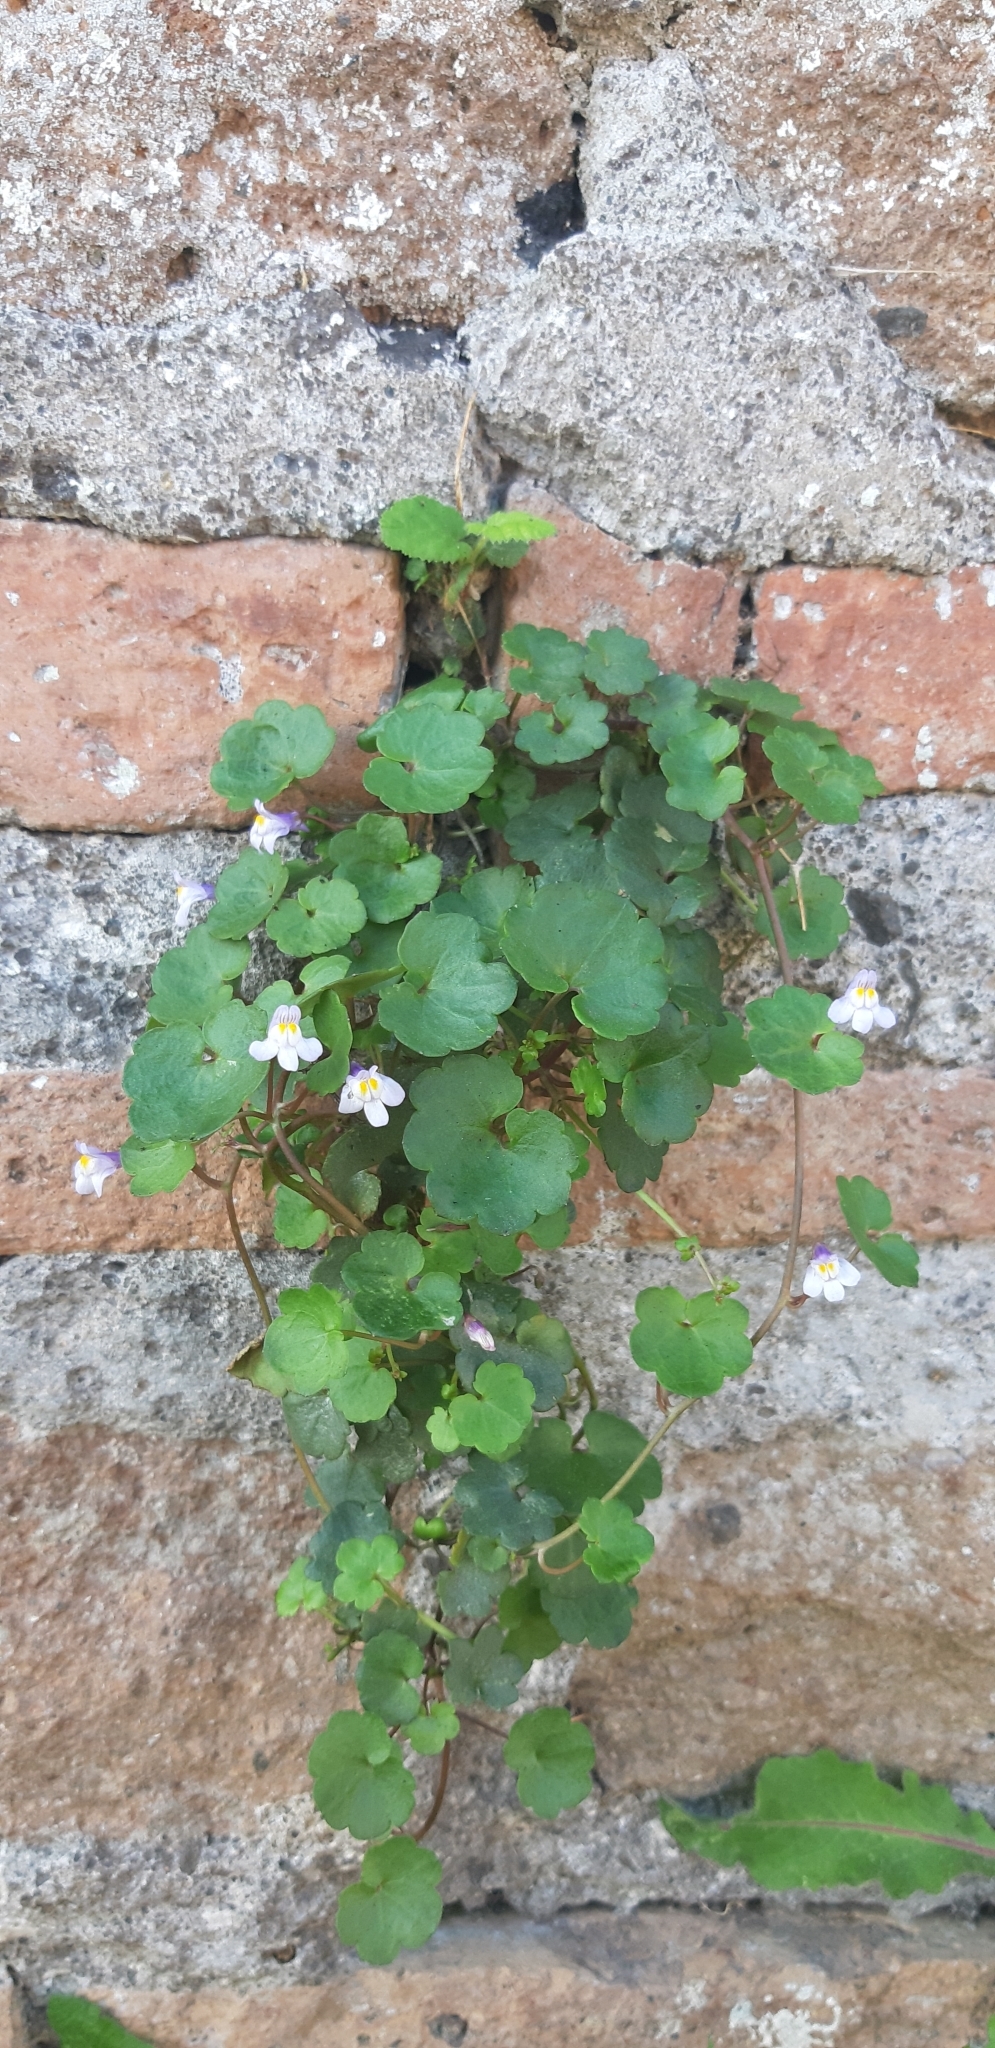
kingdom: Plantae
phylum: Tracheophyta
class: Magnoliopsida
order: Lamiales
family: Plantaginaceae
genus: Cymbalaria
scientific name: Cymbalaria muralis
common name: Ivy-leaved toadflax
